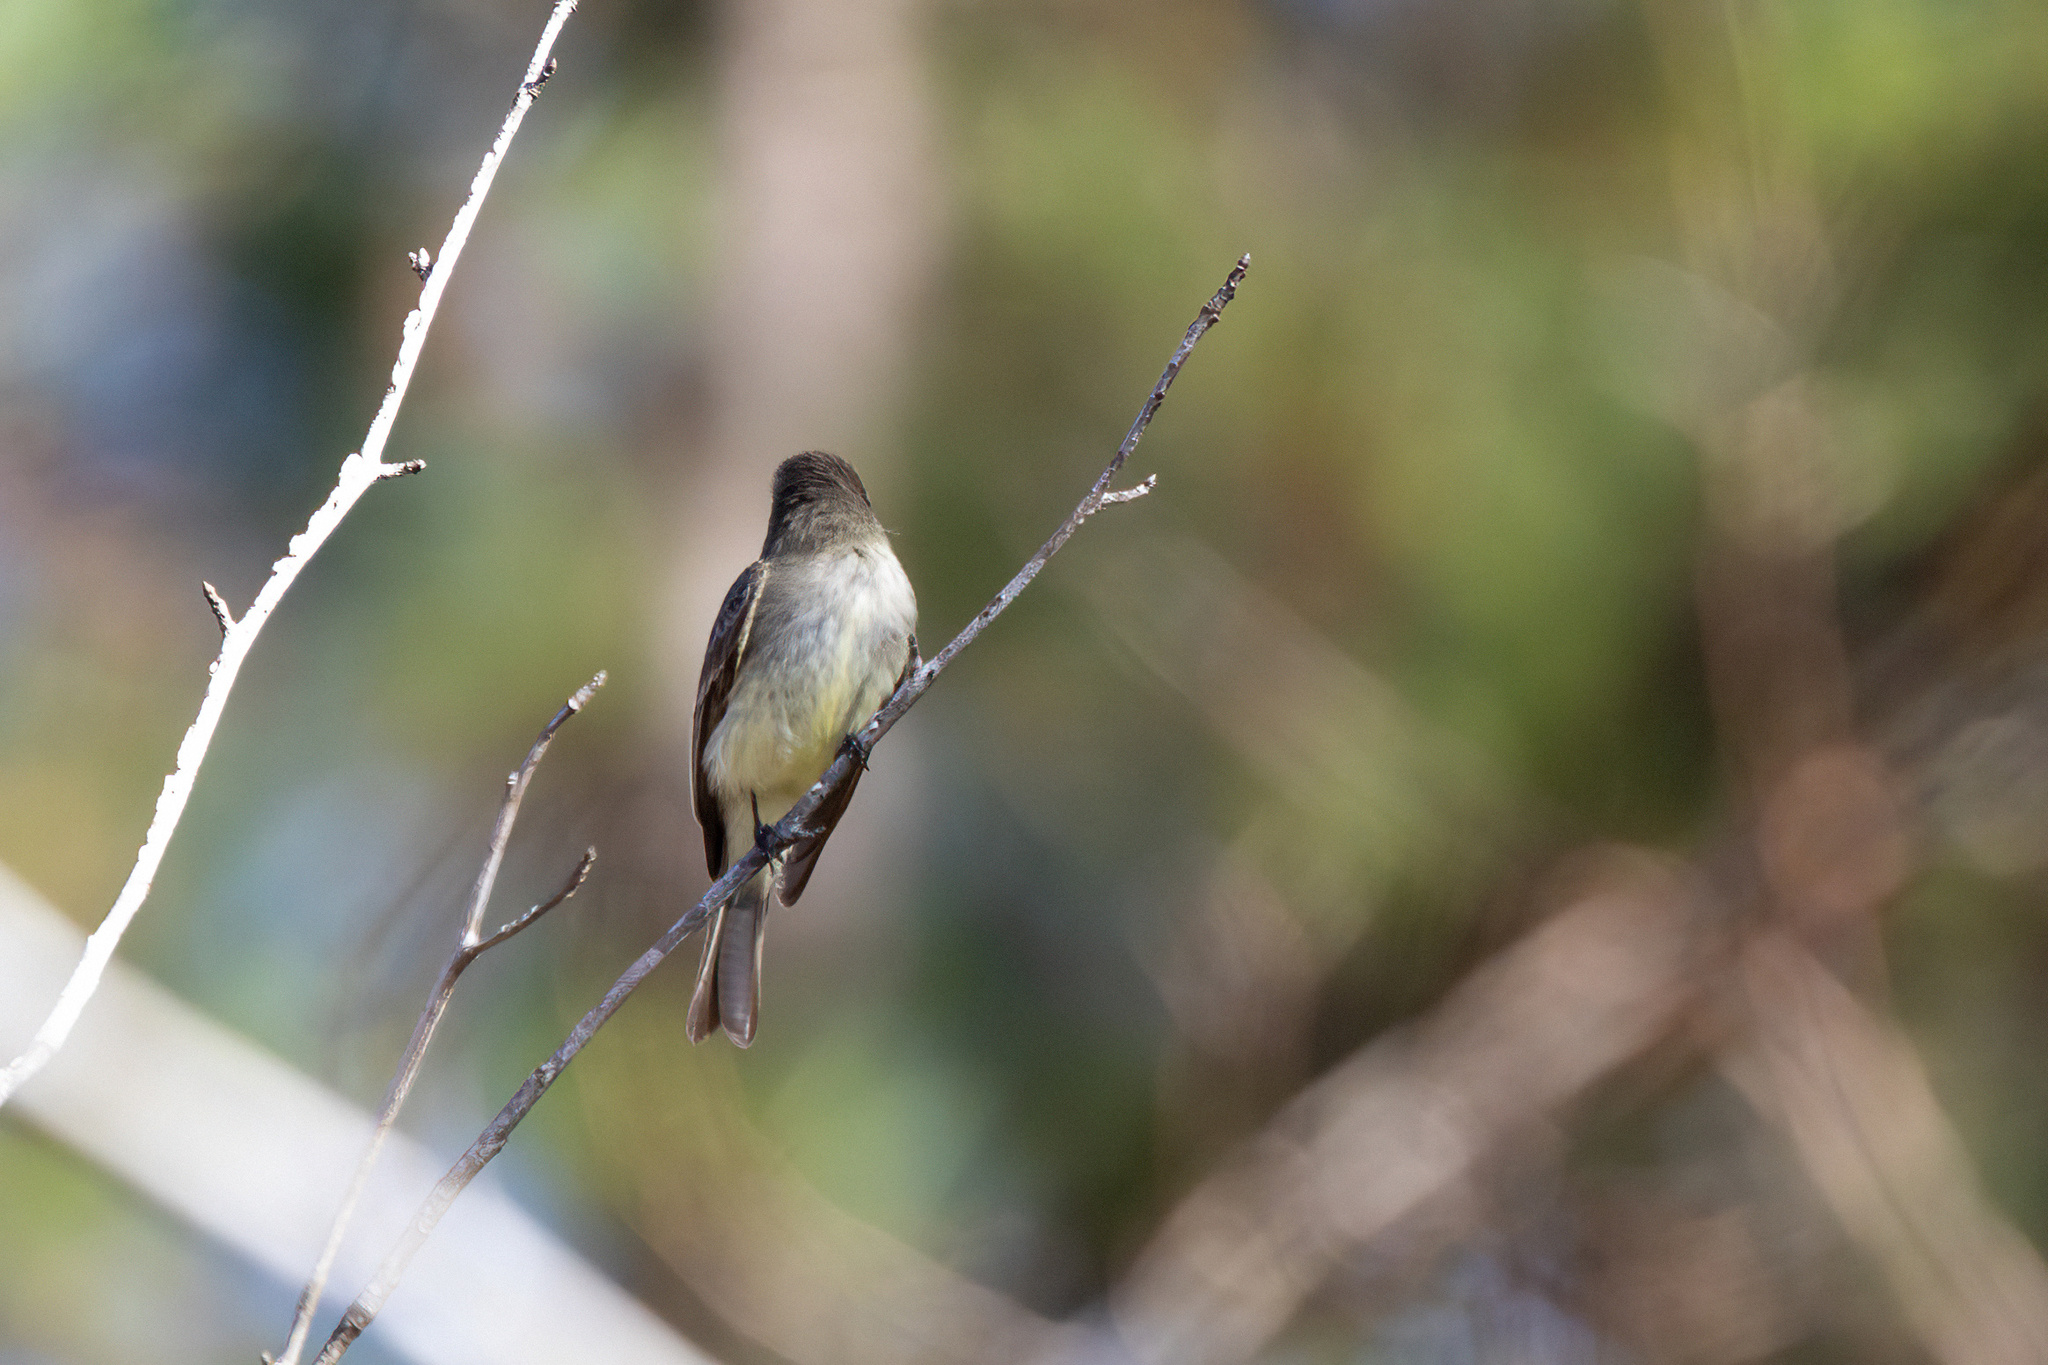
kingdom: Animalia
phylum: Chordata
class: Aves
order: Passeriformes
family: Tyrannidae
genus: Sayornis
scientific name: Sayornis phoebe
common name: Eastern phoebe
